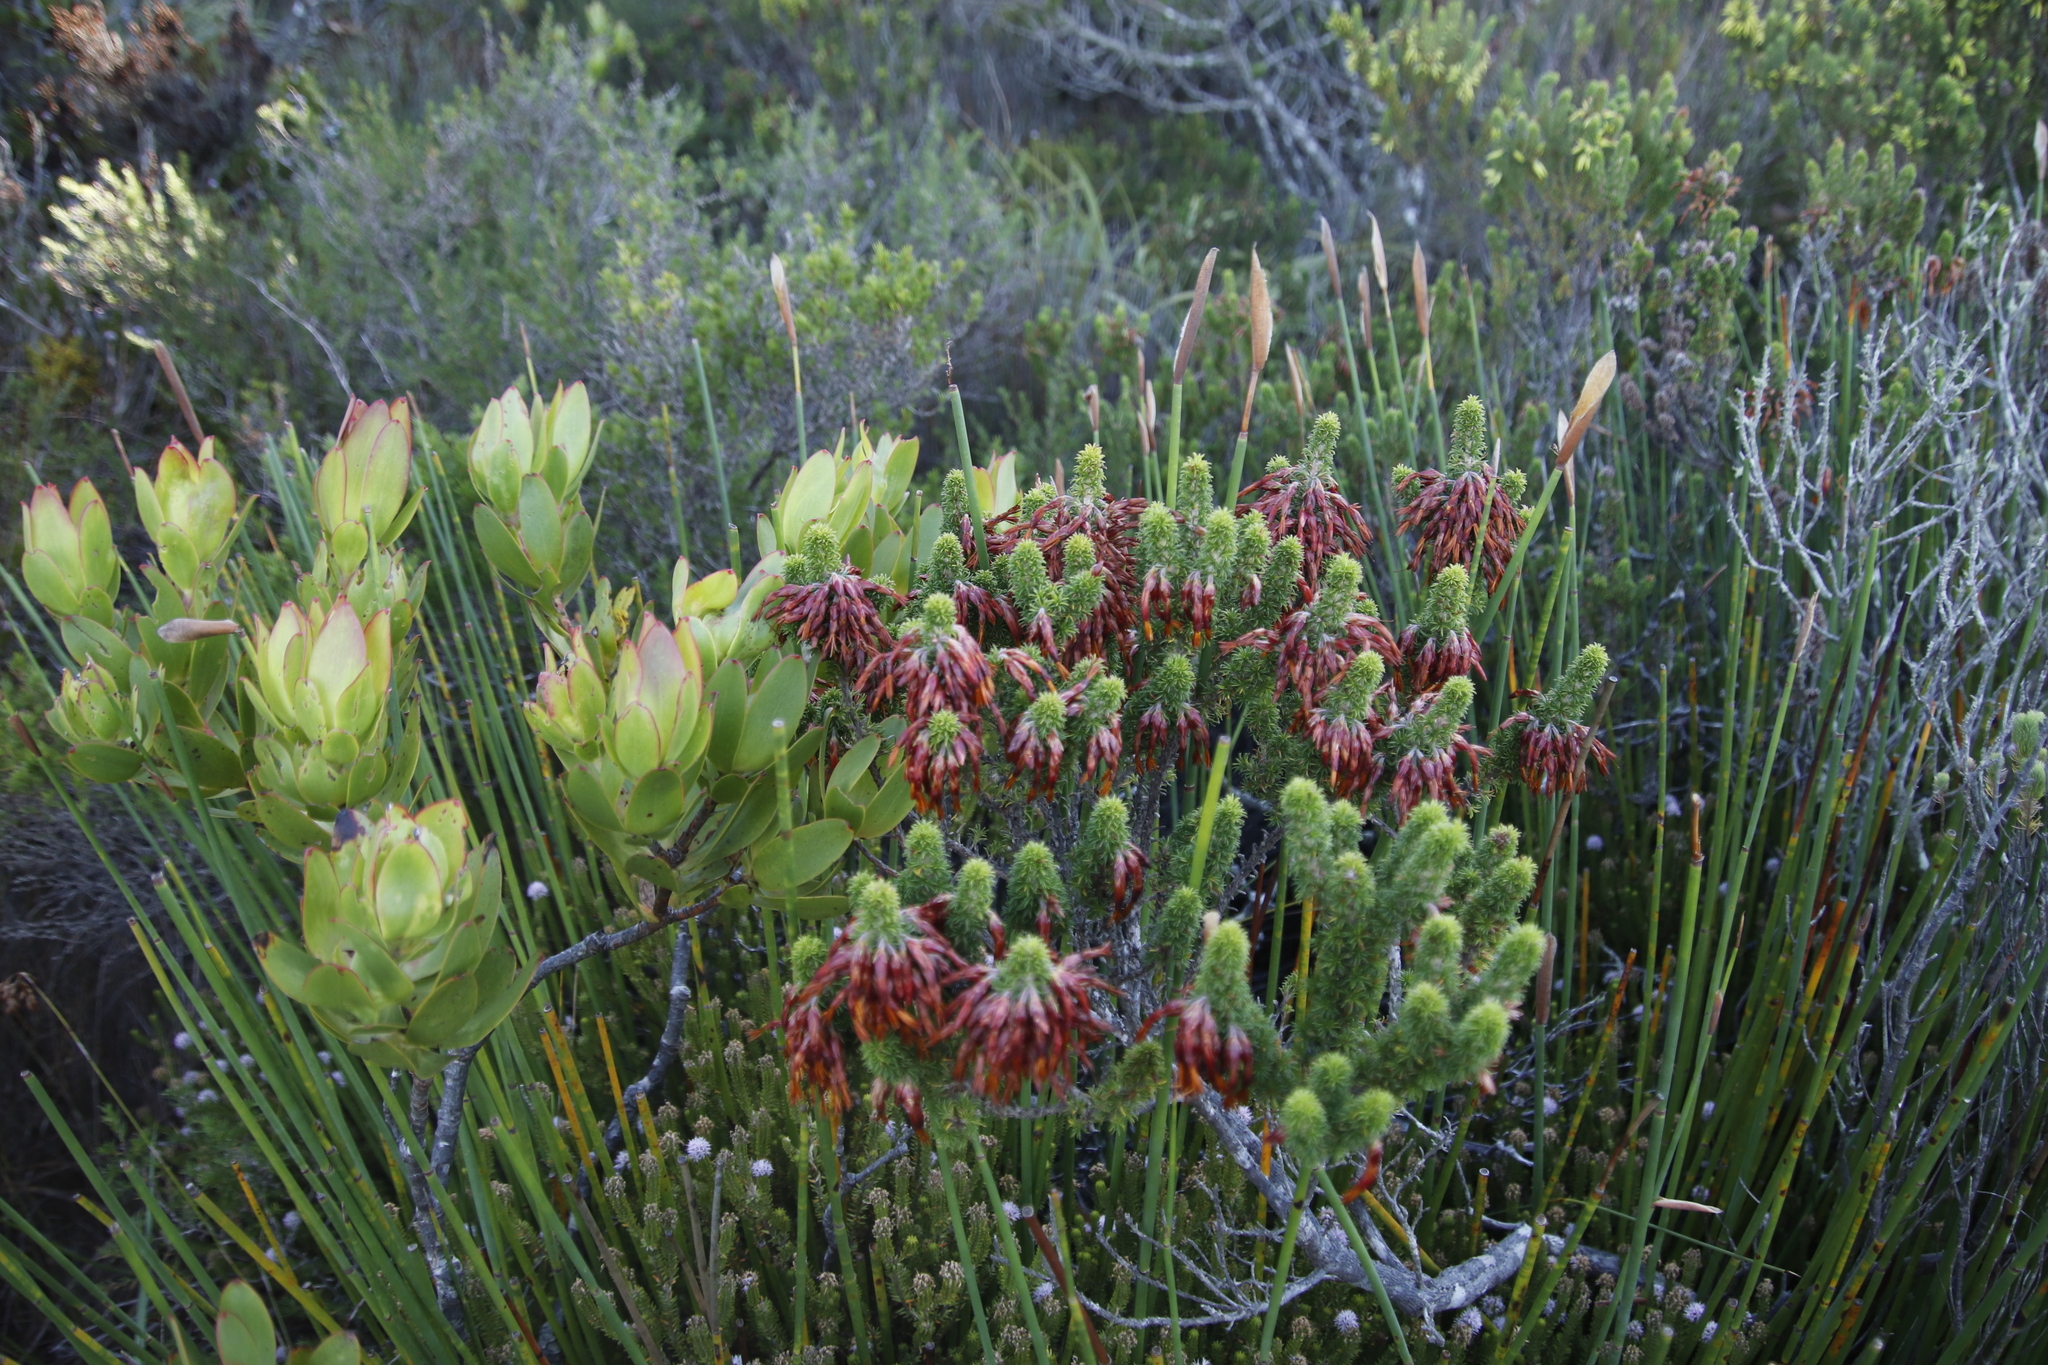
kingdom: Plantae
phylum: Tracheophyta
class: Magnoliopsida
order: Ericales
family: Ericaceae
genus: Erica
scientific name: Erica coccinea
